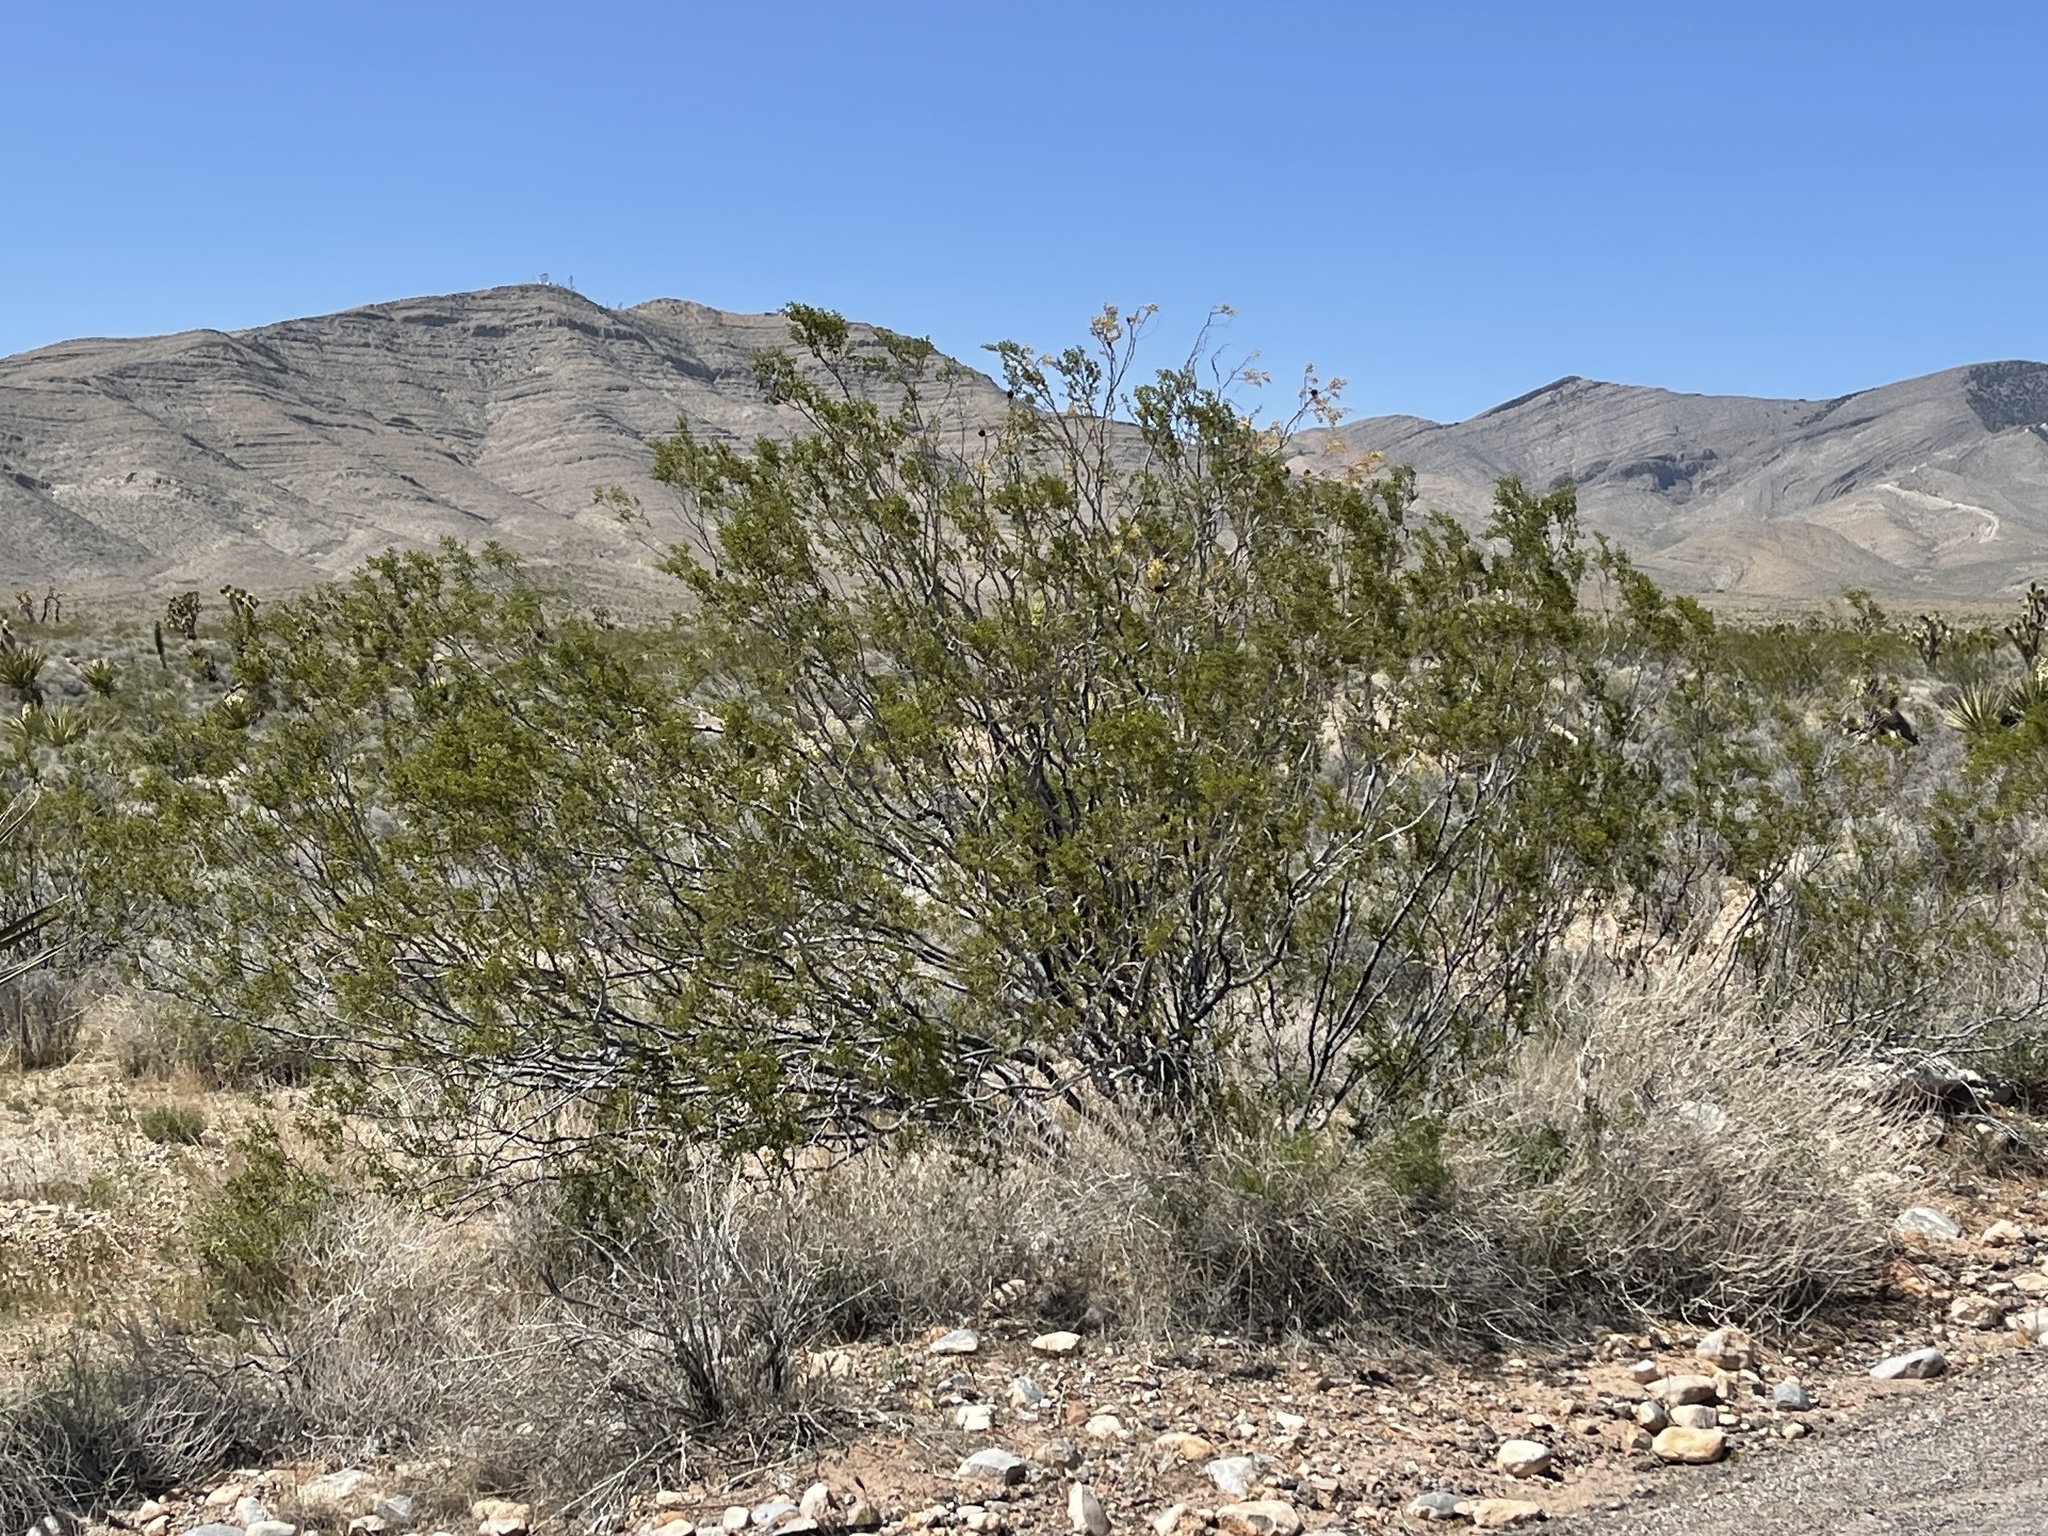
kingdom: Plantae
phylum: Tracheophyta
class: Magnoliopsida
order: Zygophyllales
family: Zygophyllaceae
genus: Larrea
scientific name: Larrea tridentata
